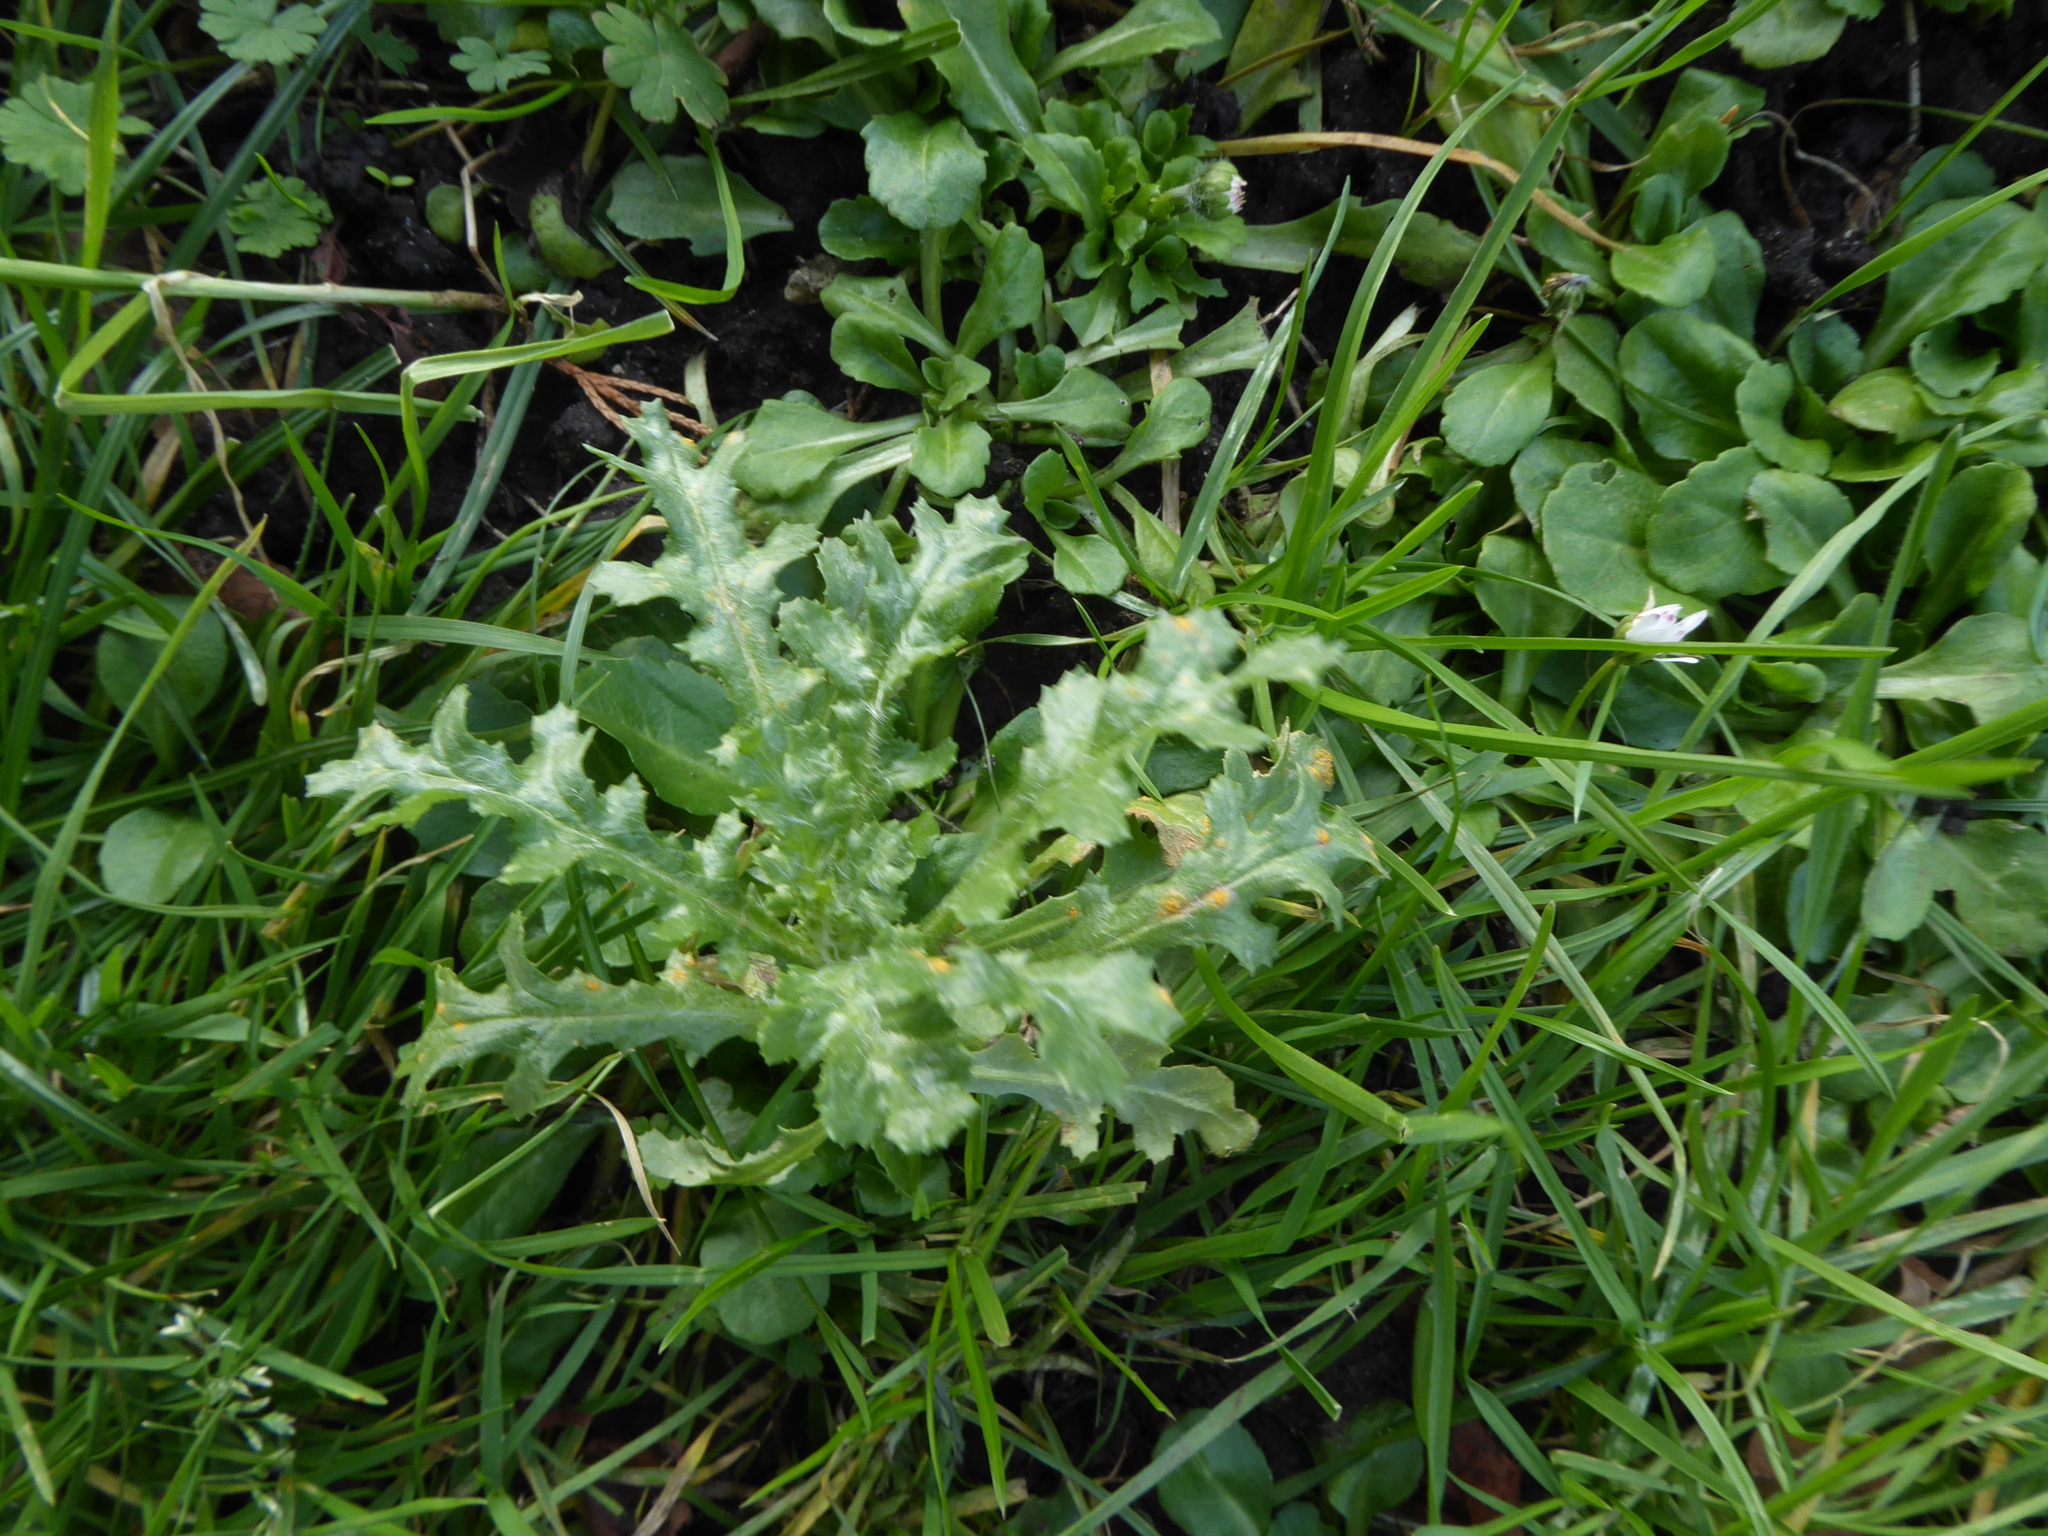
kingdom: Plantae
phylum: Tracheophyta
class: Magnoliopsida
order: Asterales
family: Asteraceae
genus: Senecio
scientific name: Senecio vulgaris
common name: Old-man-in-the-spring
